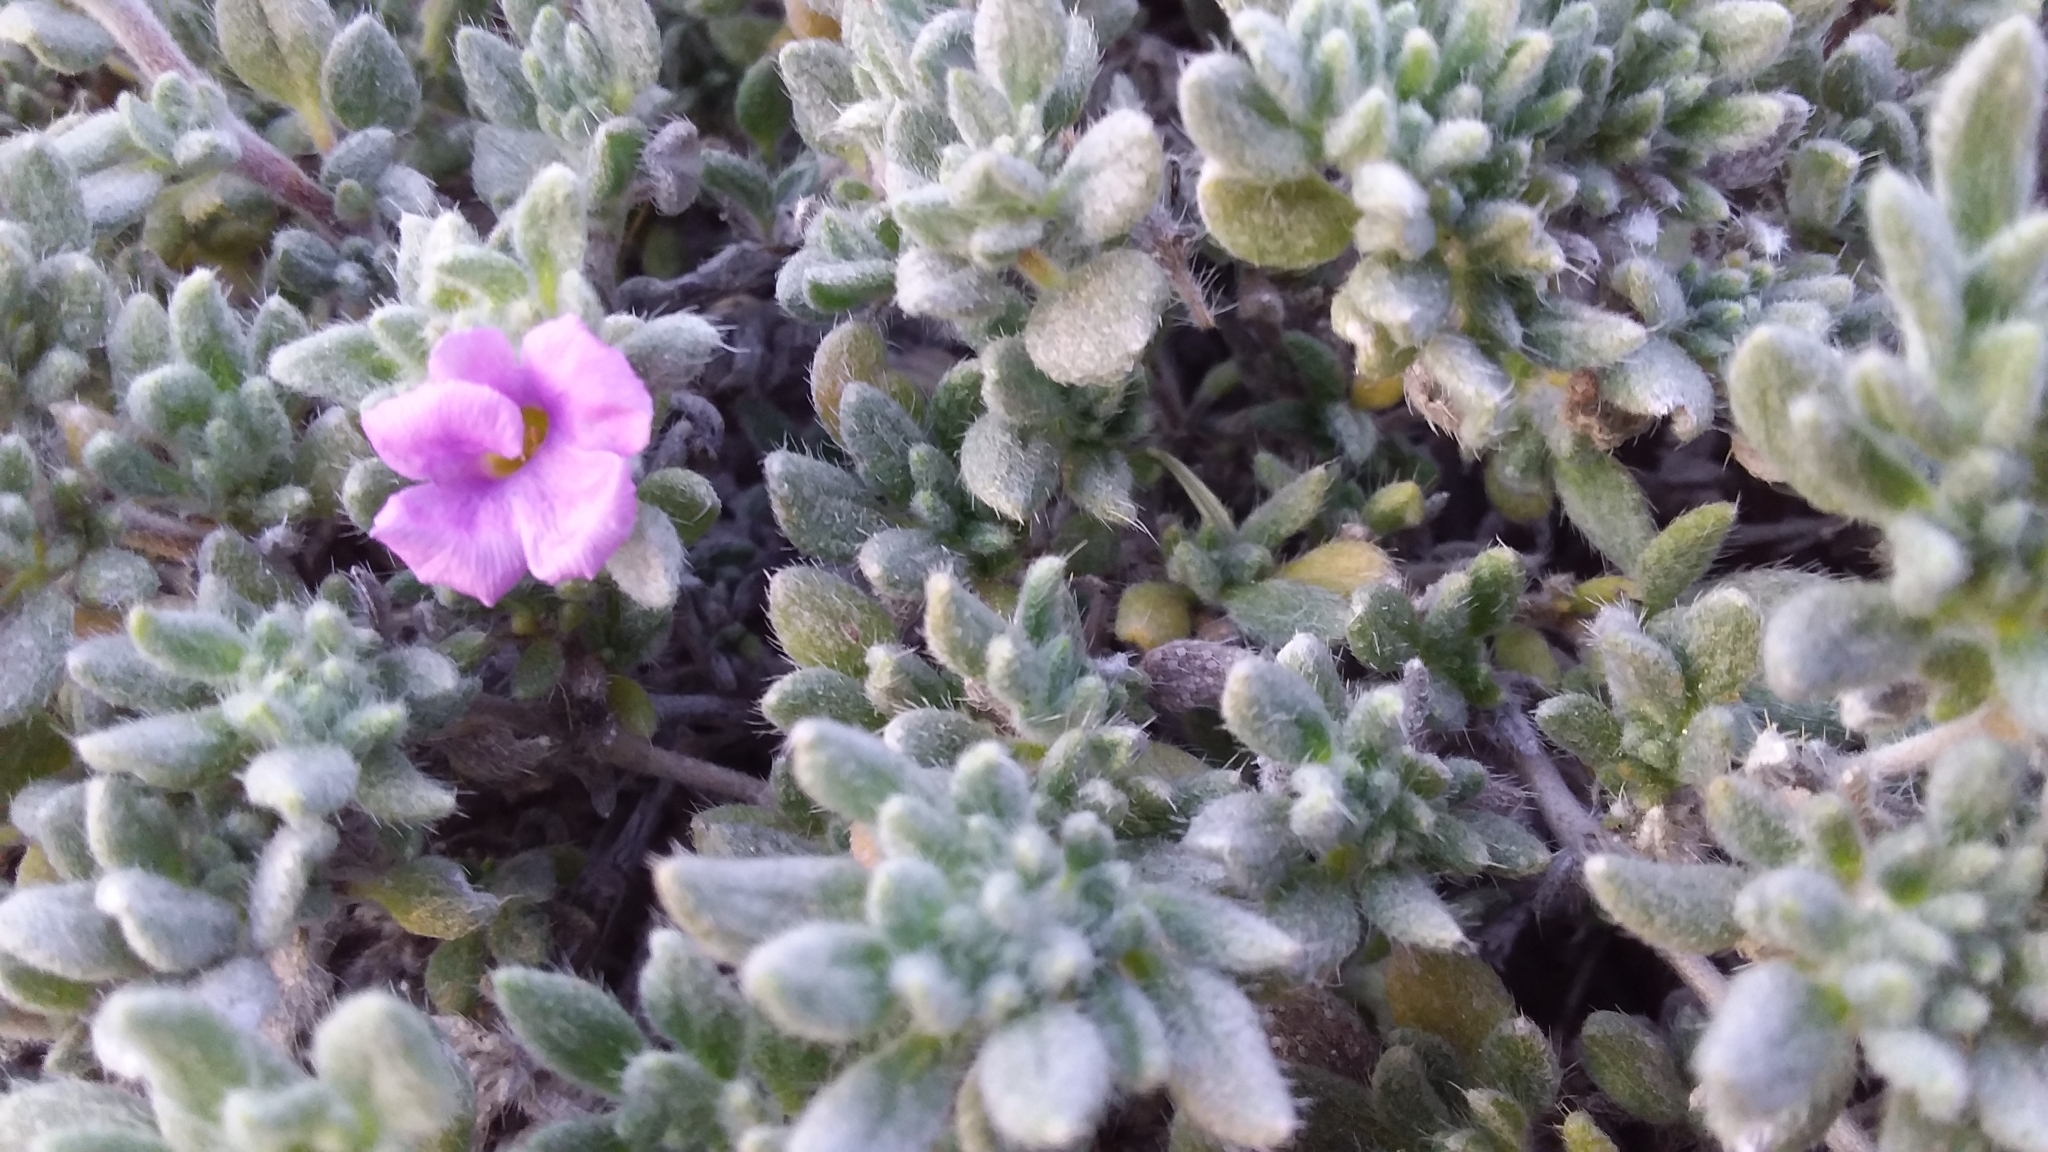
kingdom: Plantae
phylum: Tracheophyta
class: Magnoliopsida
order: Boraginales
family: Ehretiaceae
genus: Tiquilia
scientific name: Tiquilia canescens
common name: Hairy tiquilia
